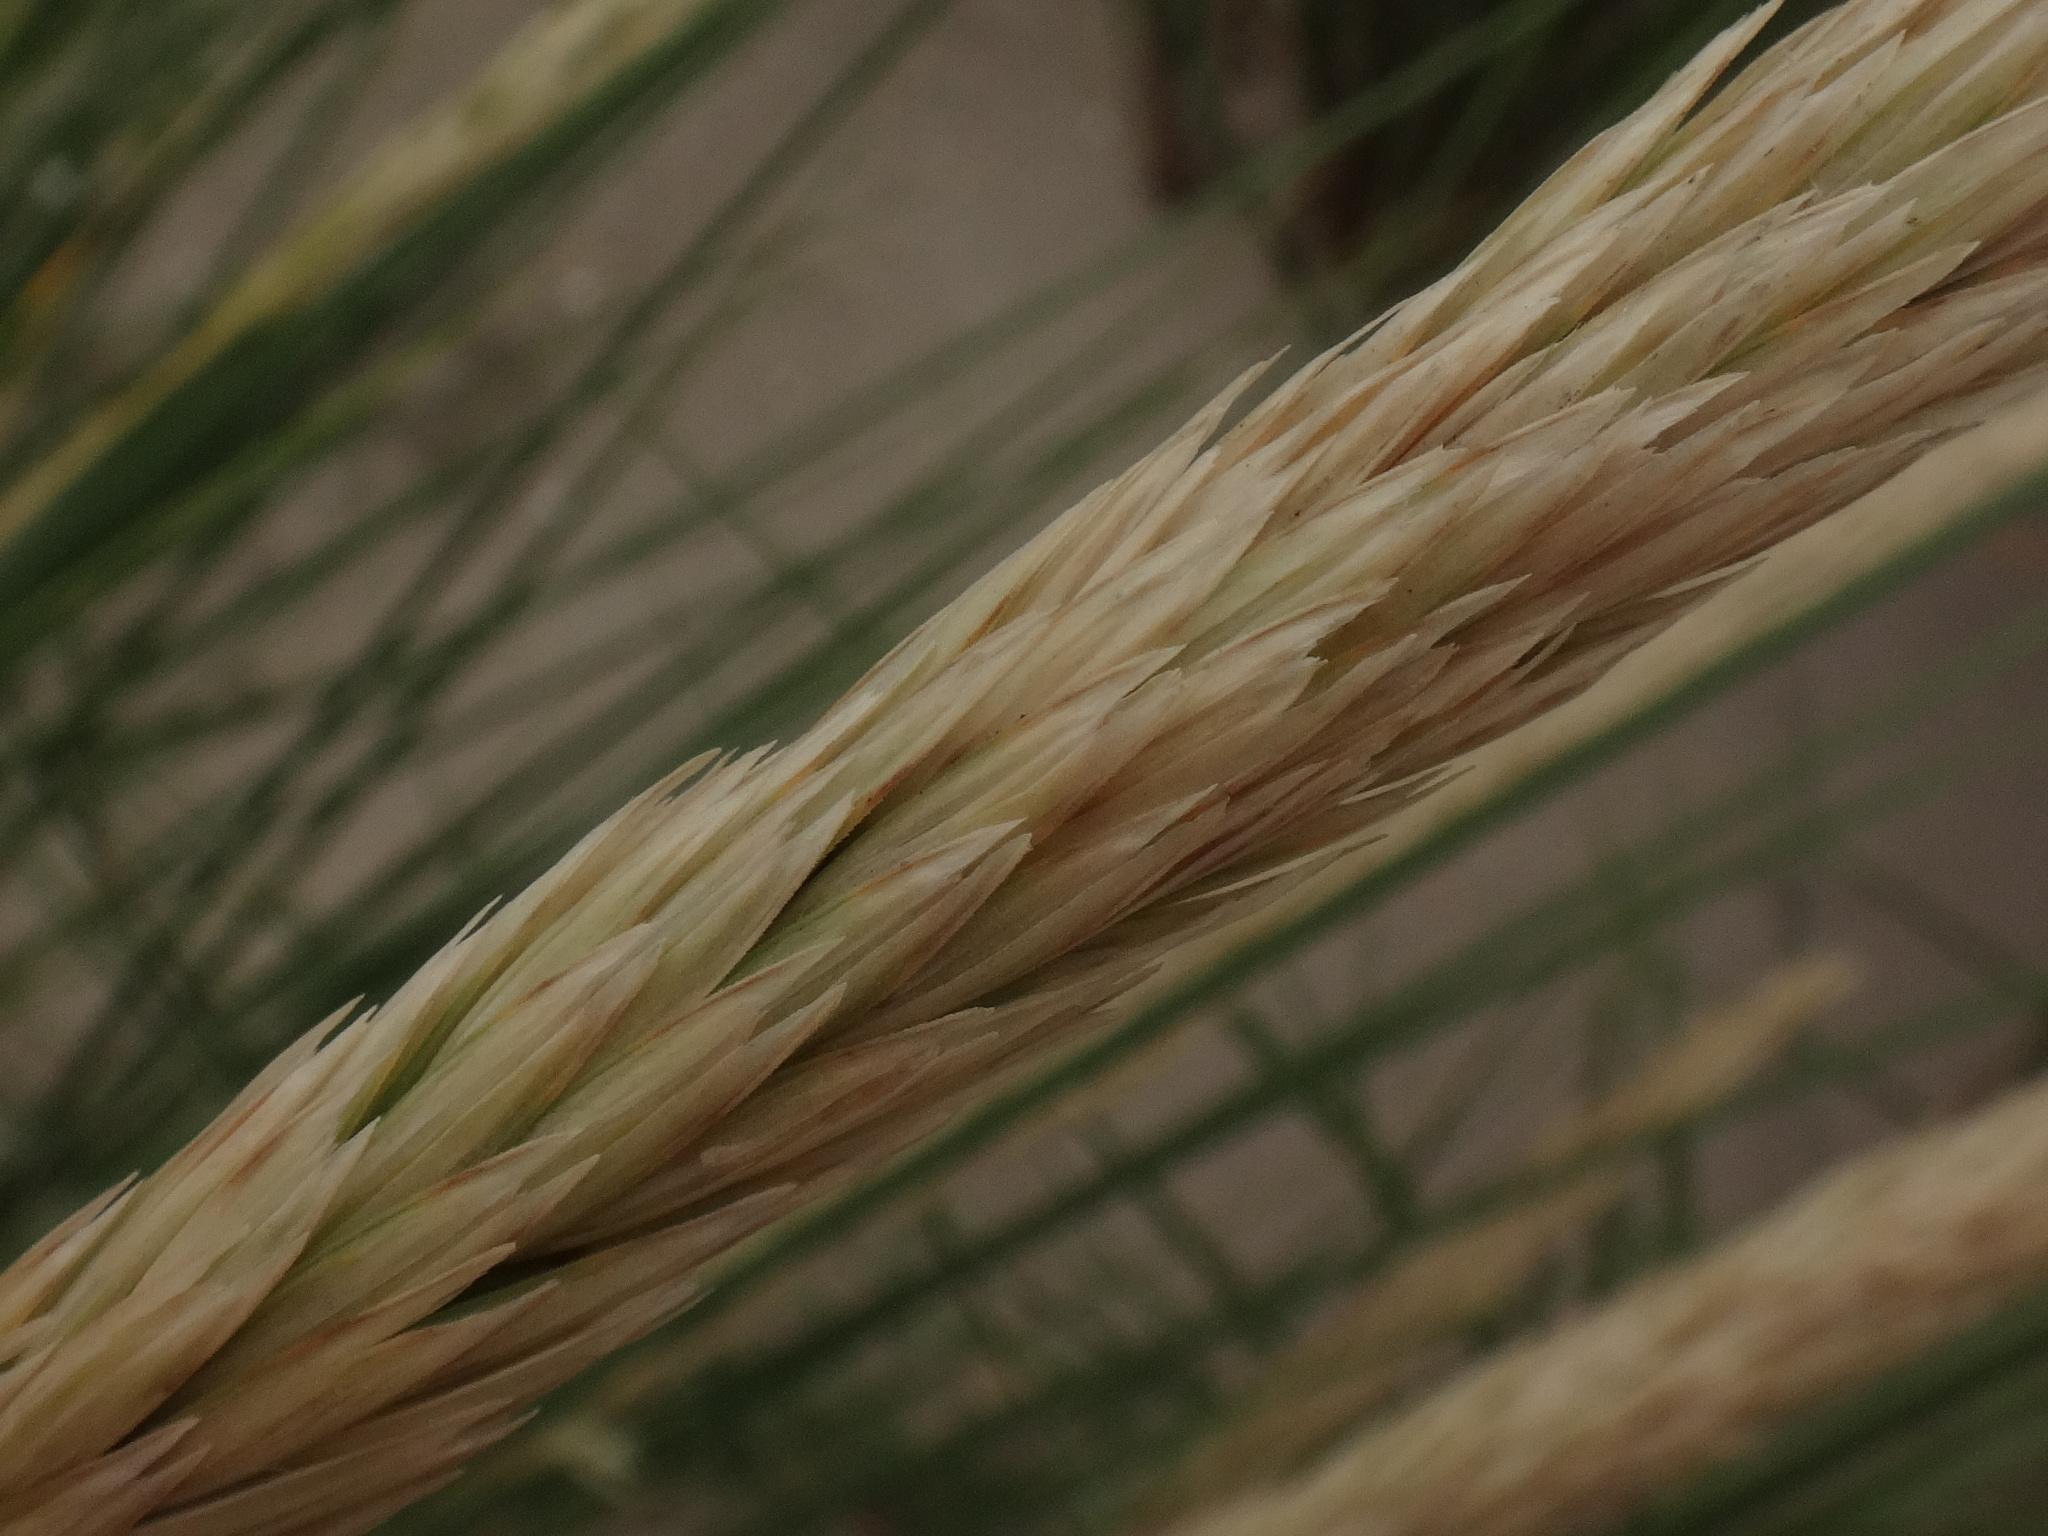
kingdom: Plantae
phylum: Tracheophyta
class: Liliopsida
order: Poales
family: Poaceae
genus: Calamagrostis
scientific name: Calamagrostis arenaria
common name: European beachgrass
